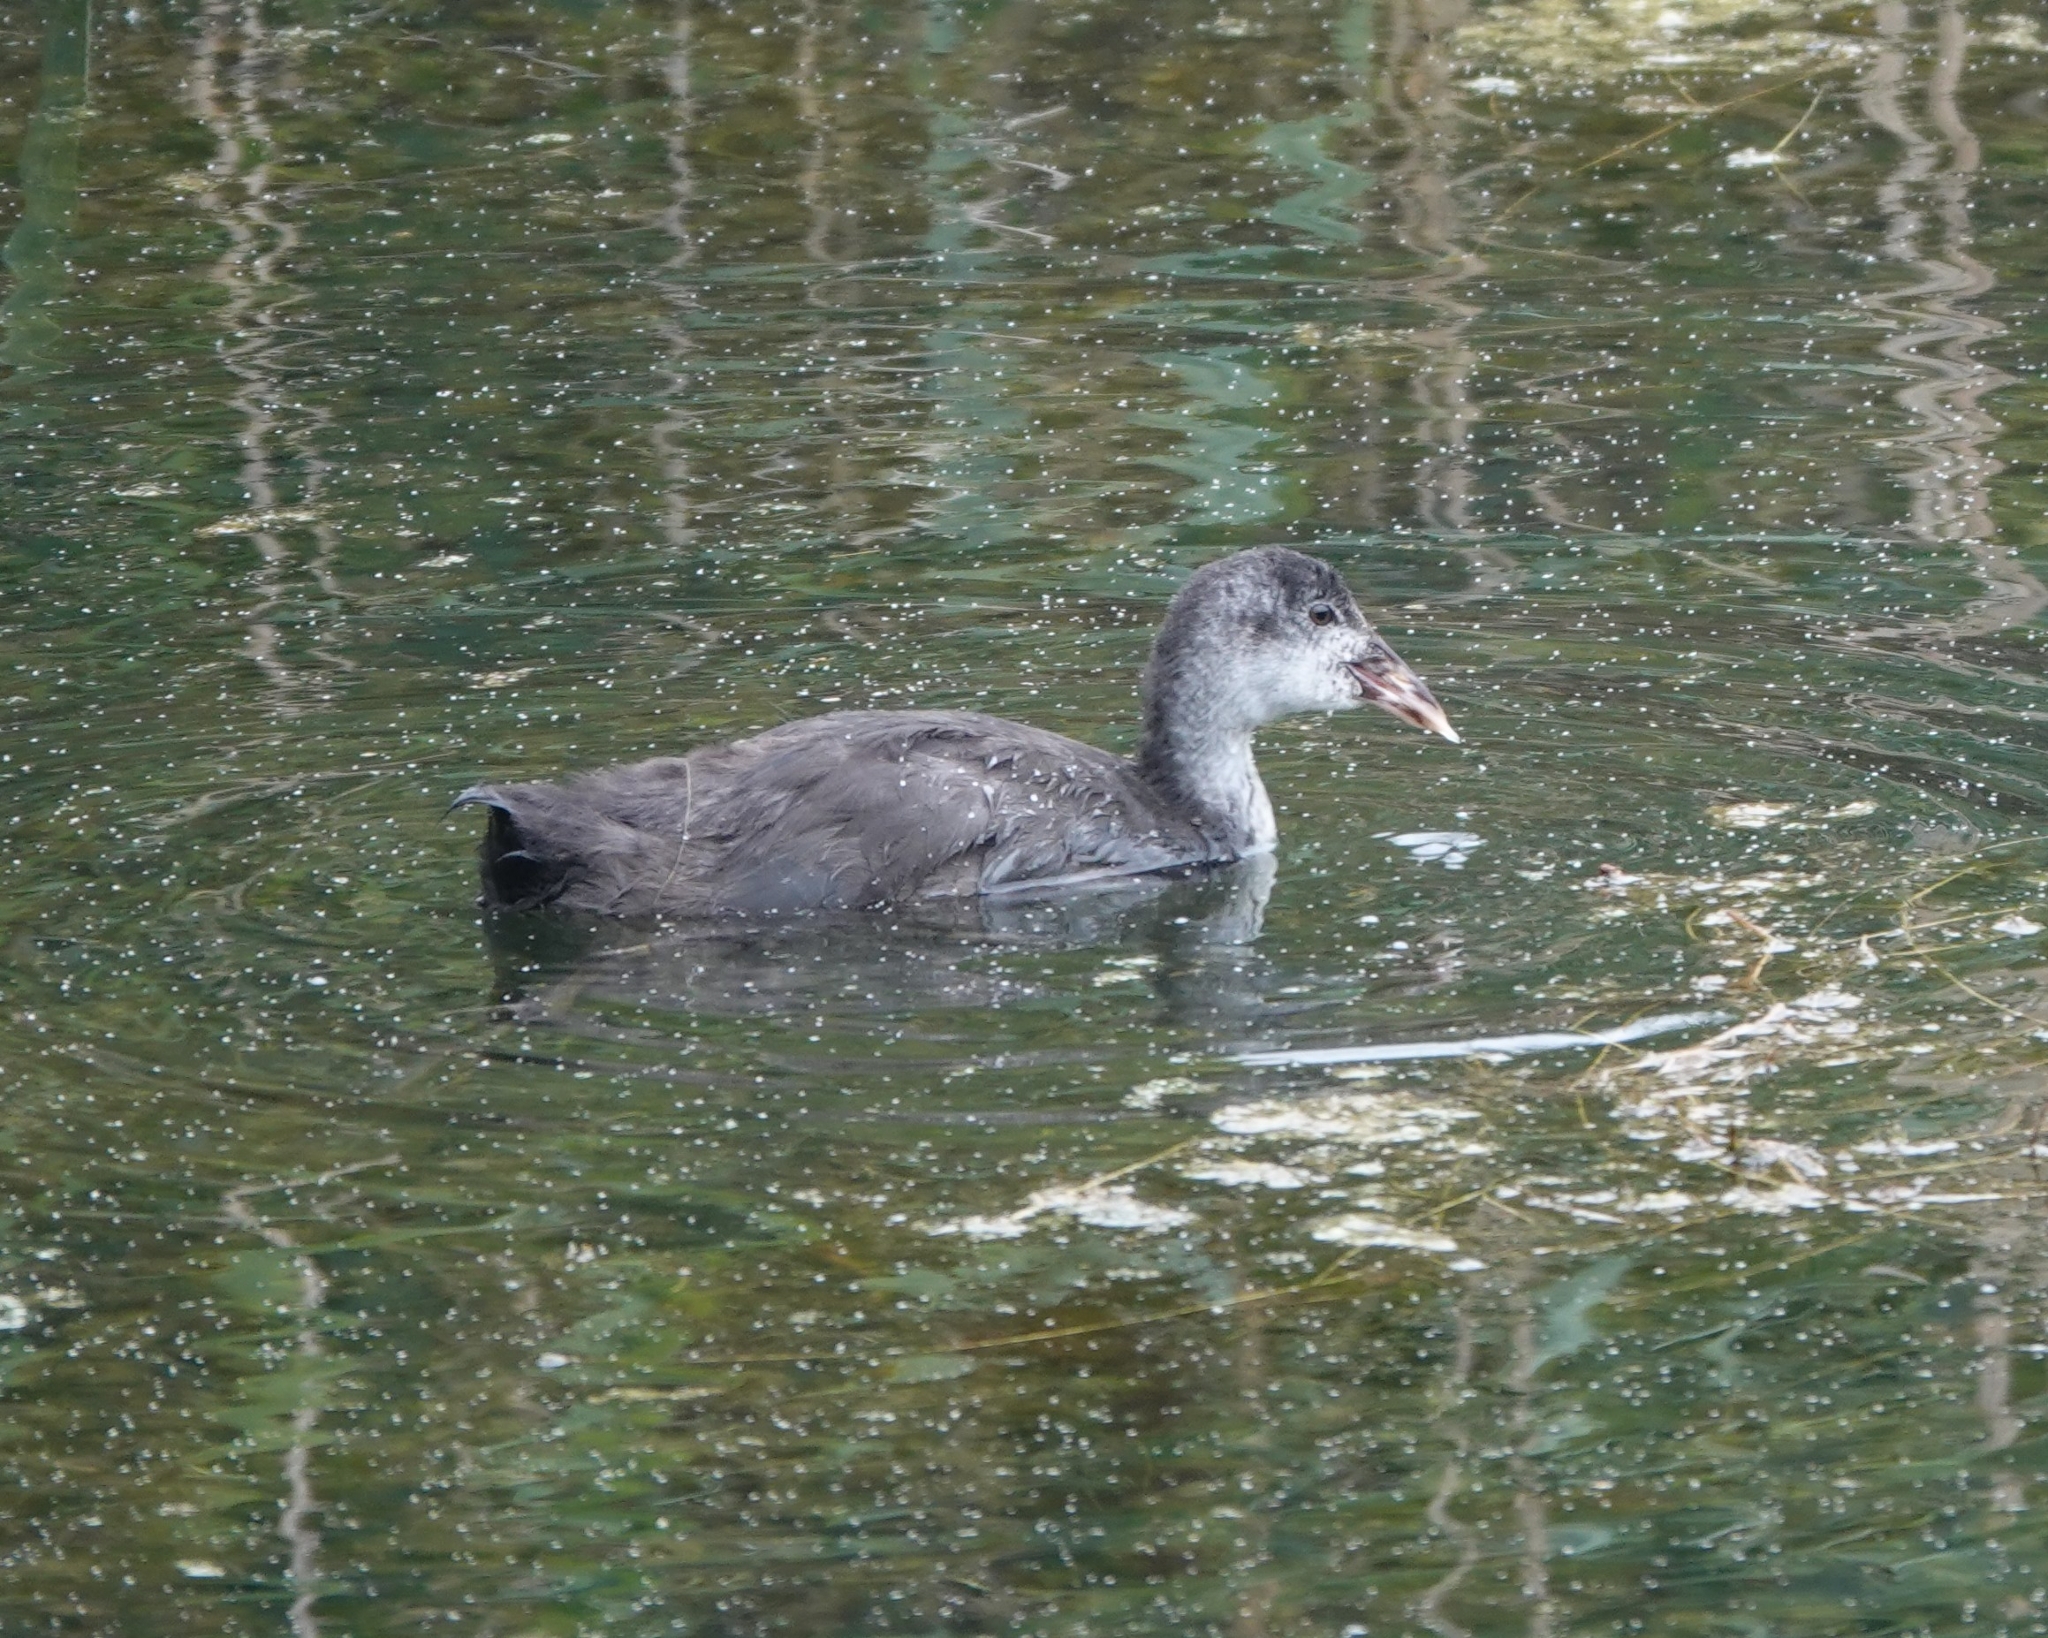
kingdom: Animalia
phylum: Chordata
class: Aves
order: Gruiformes
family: Rallidae
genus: Fulica
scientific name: Fulica atra
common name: Eurasian coot
